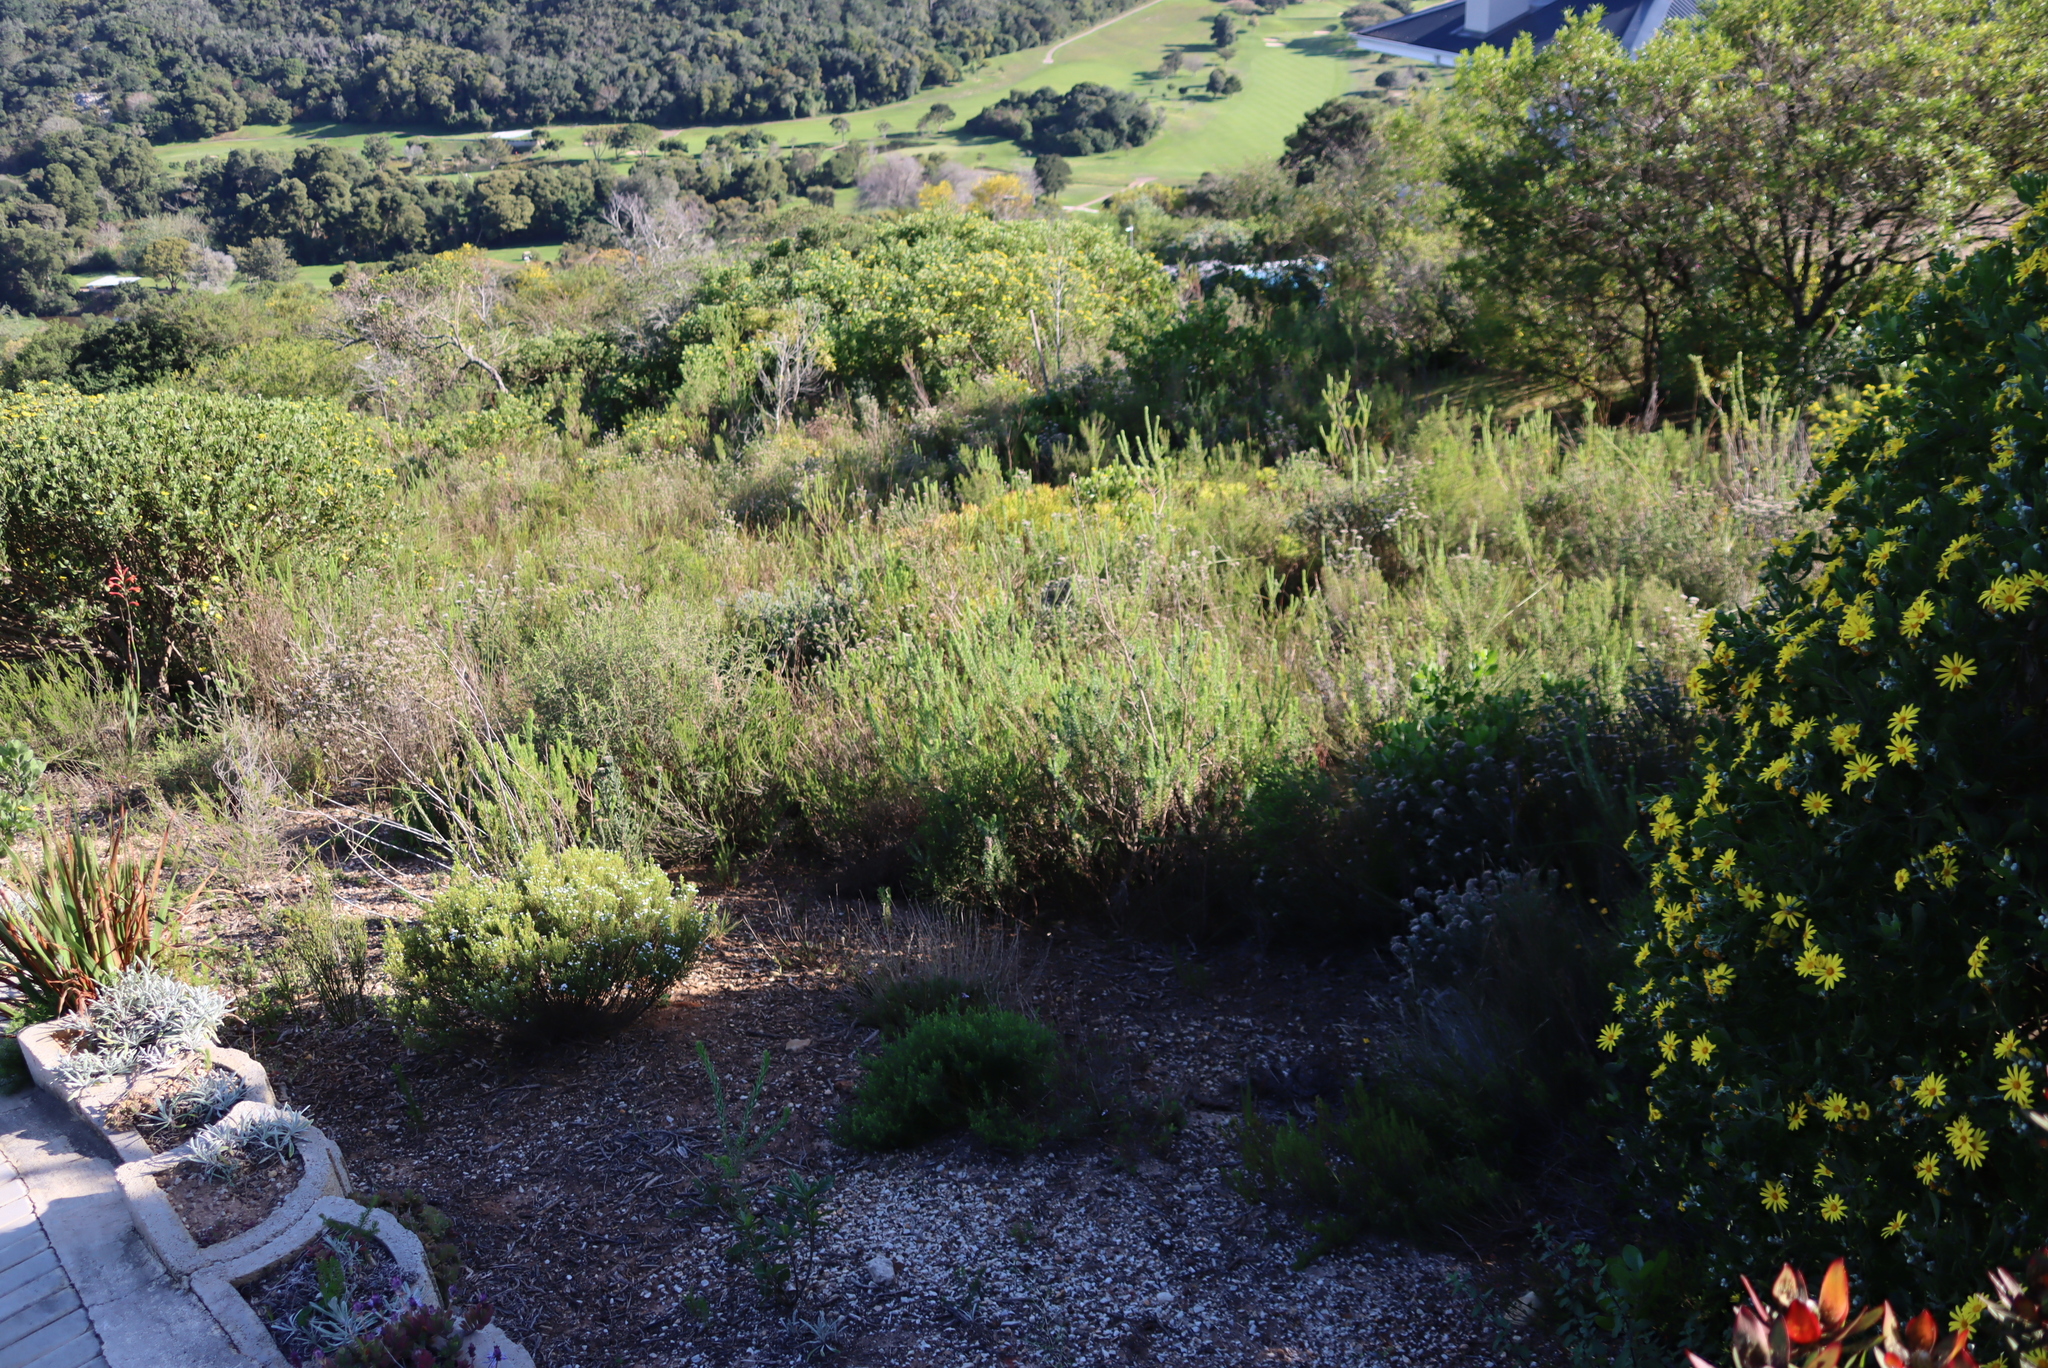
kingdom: Plantae
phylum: Tracheophyta
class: Magnoliopsida
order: Proteales
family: Proteaceae
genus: Leucadendron
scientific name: Leucadendron salignum
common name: Common sunshine conebush
